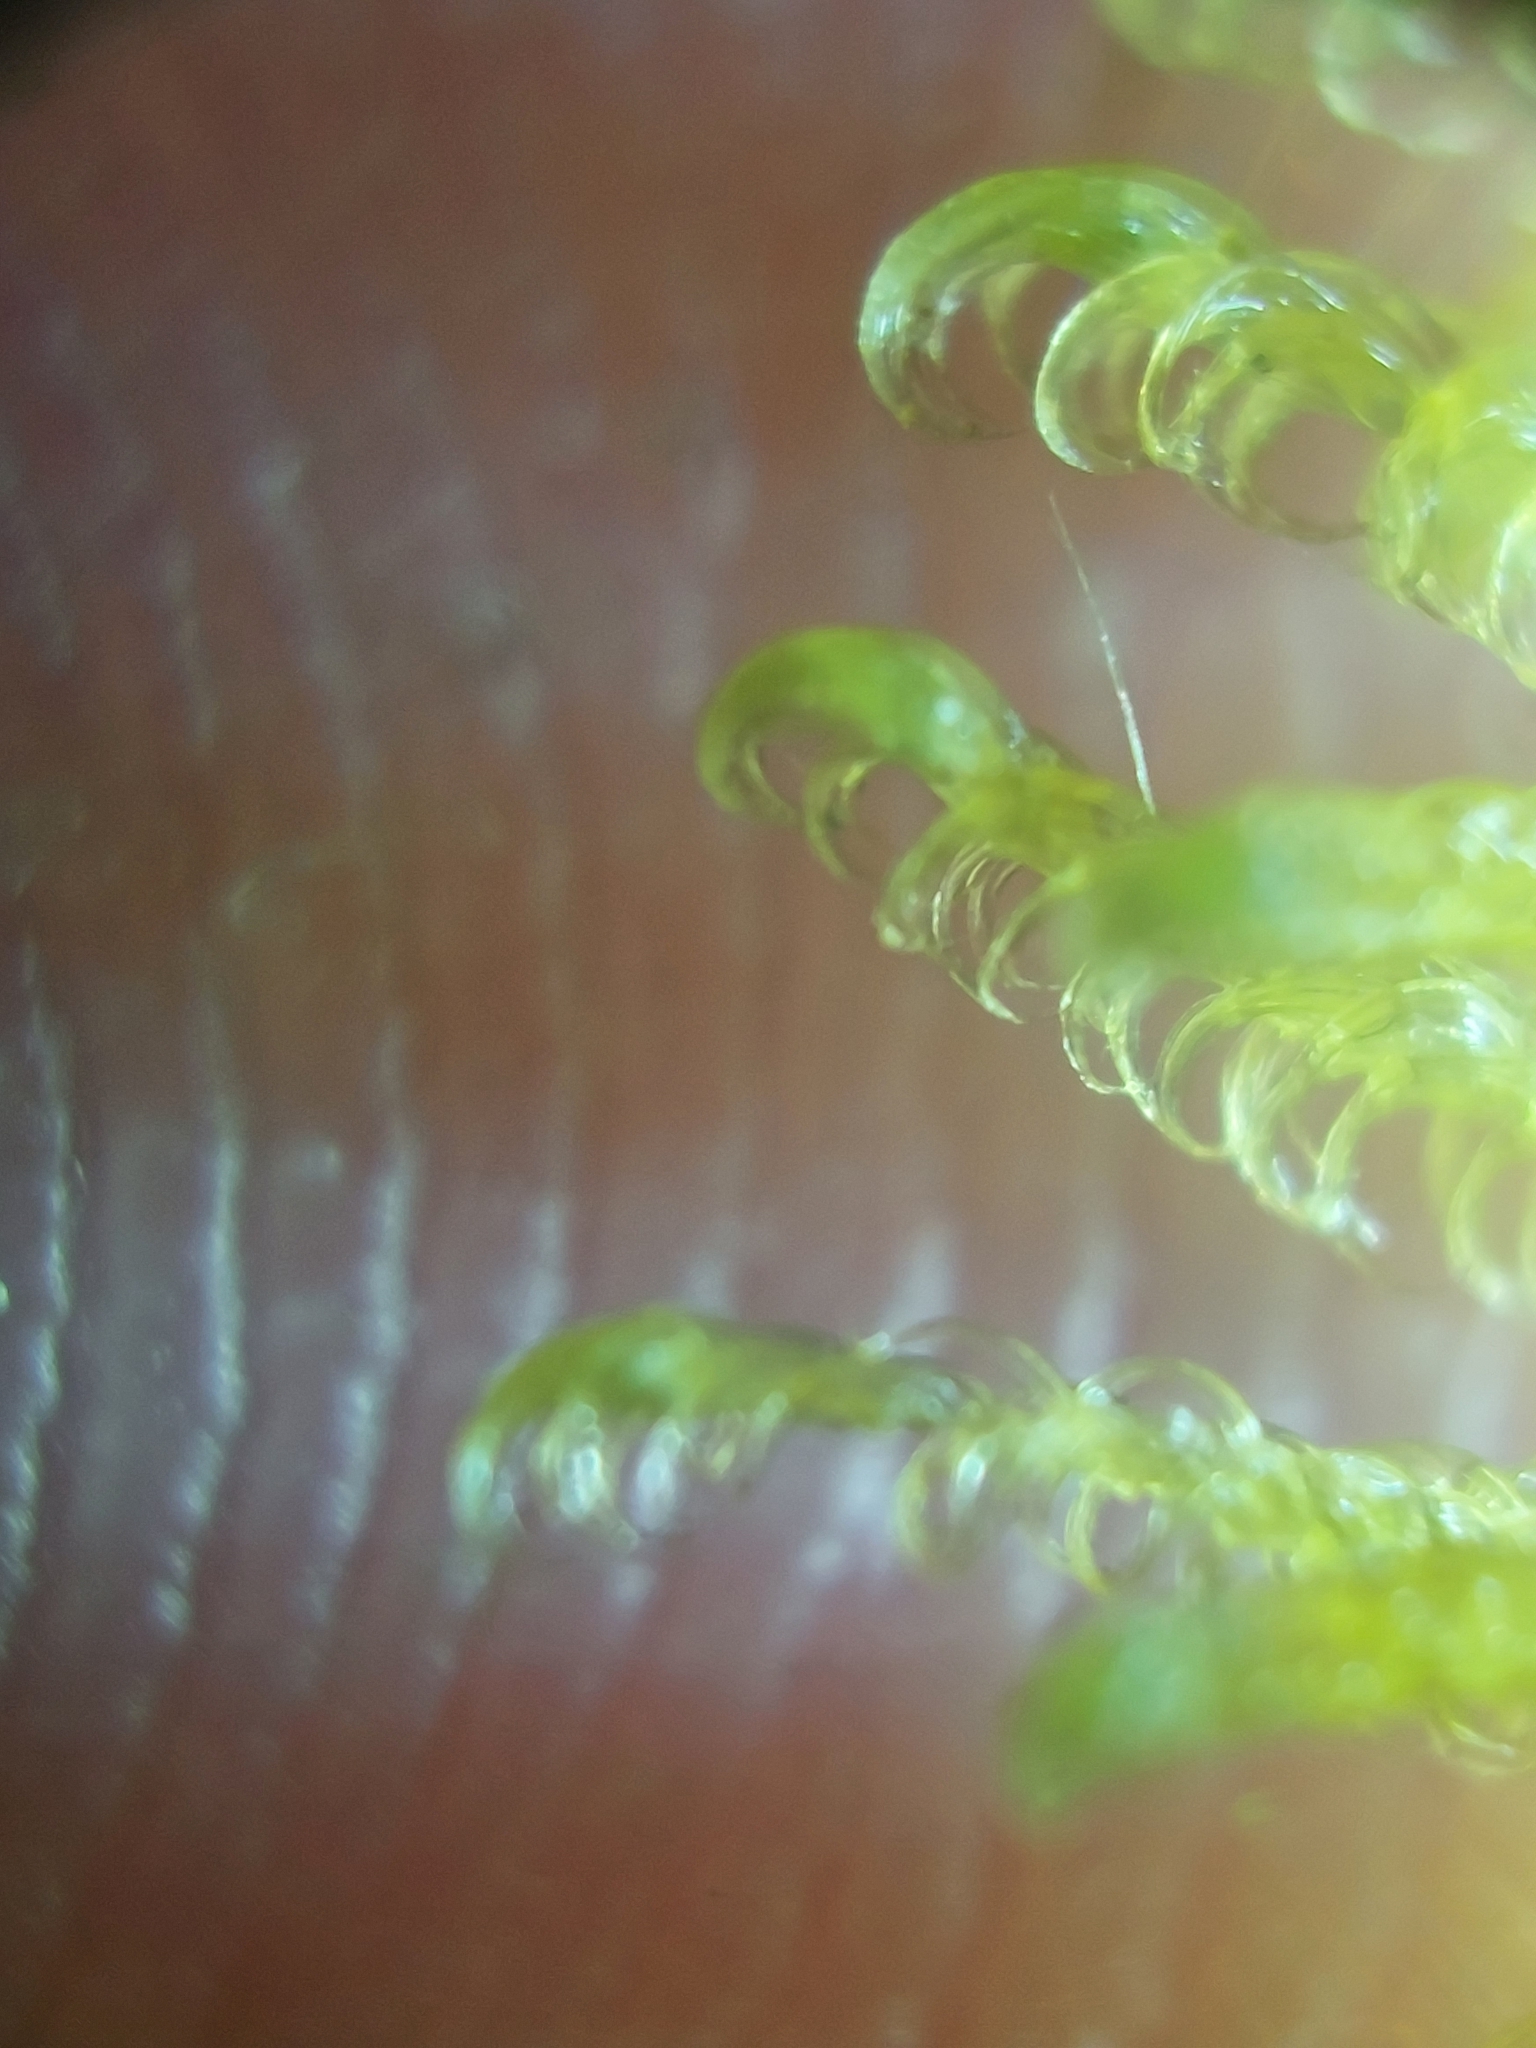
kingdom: Plantae
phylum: Bryophyta
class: Bryopsida
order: Hypnales
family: Pylaisiaceae
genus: Ptilium
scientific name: Ptilium crista-castrensis
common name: Knight's plume moss
